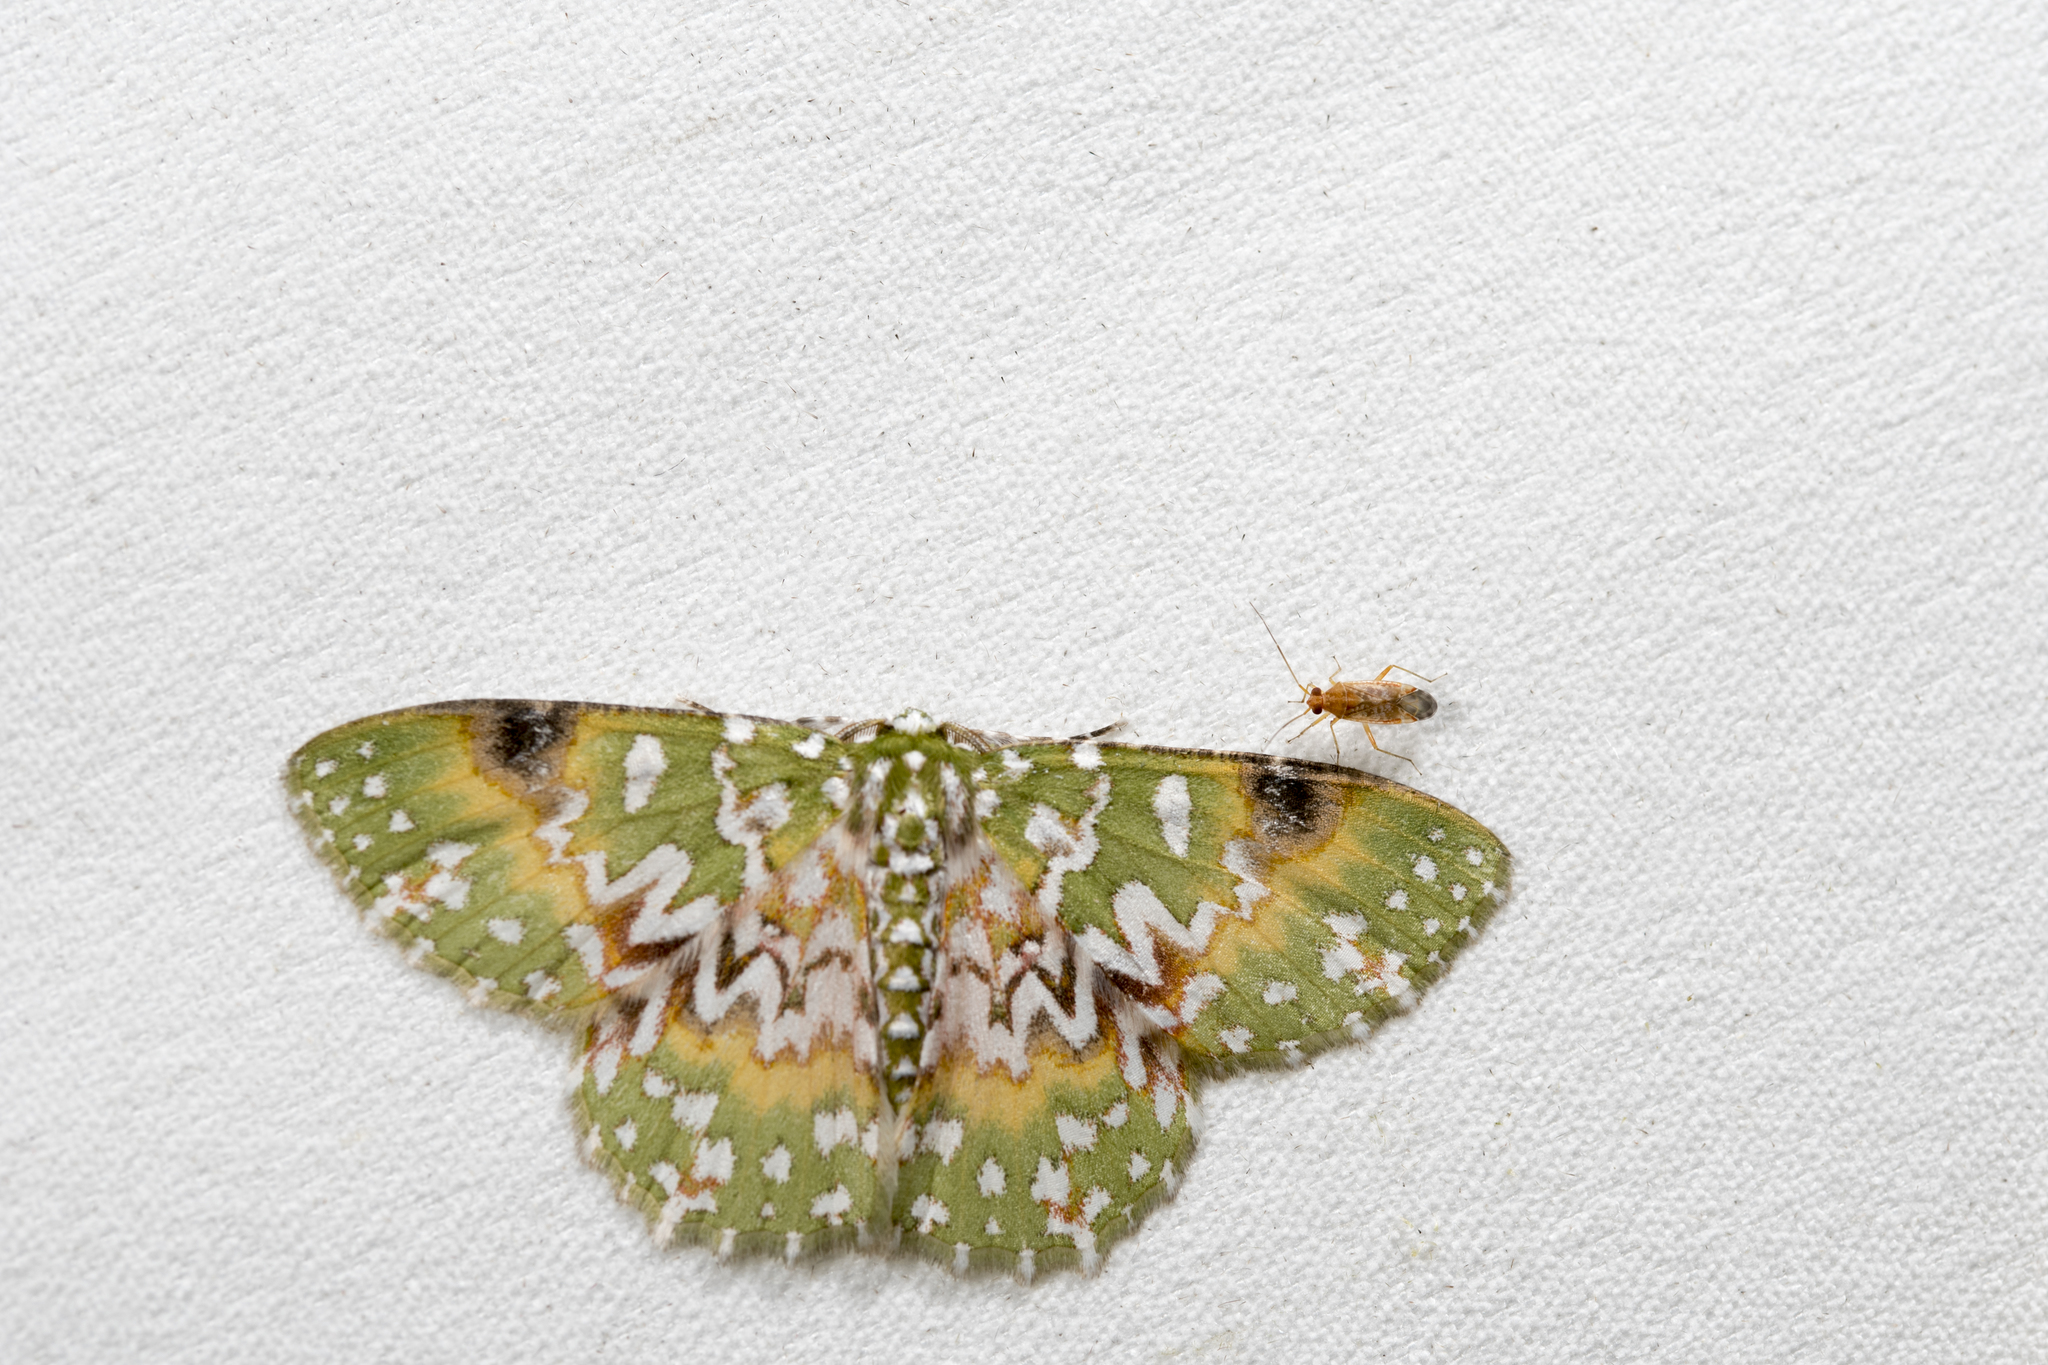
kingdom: Animalia
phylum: Arthropoda
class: Insecta
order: Lepidoptera
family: Geometridae
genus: Eucyclodes
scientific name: Eucyclodes
